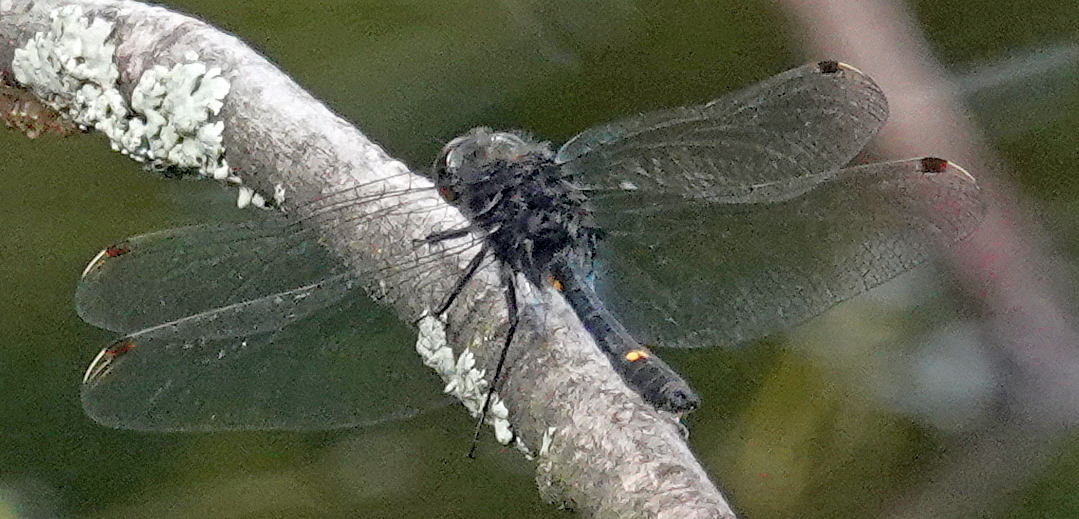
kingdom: Animalia
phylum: Arthropoda
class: Insecta
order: Odonata
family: Libellulidae
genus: Leucorrhinia
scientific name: Leucorrhinia intacta
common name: Dot-tailed whiteface
